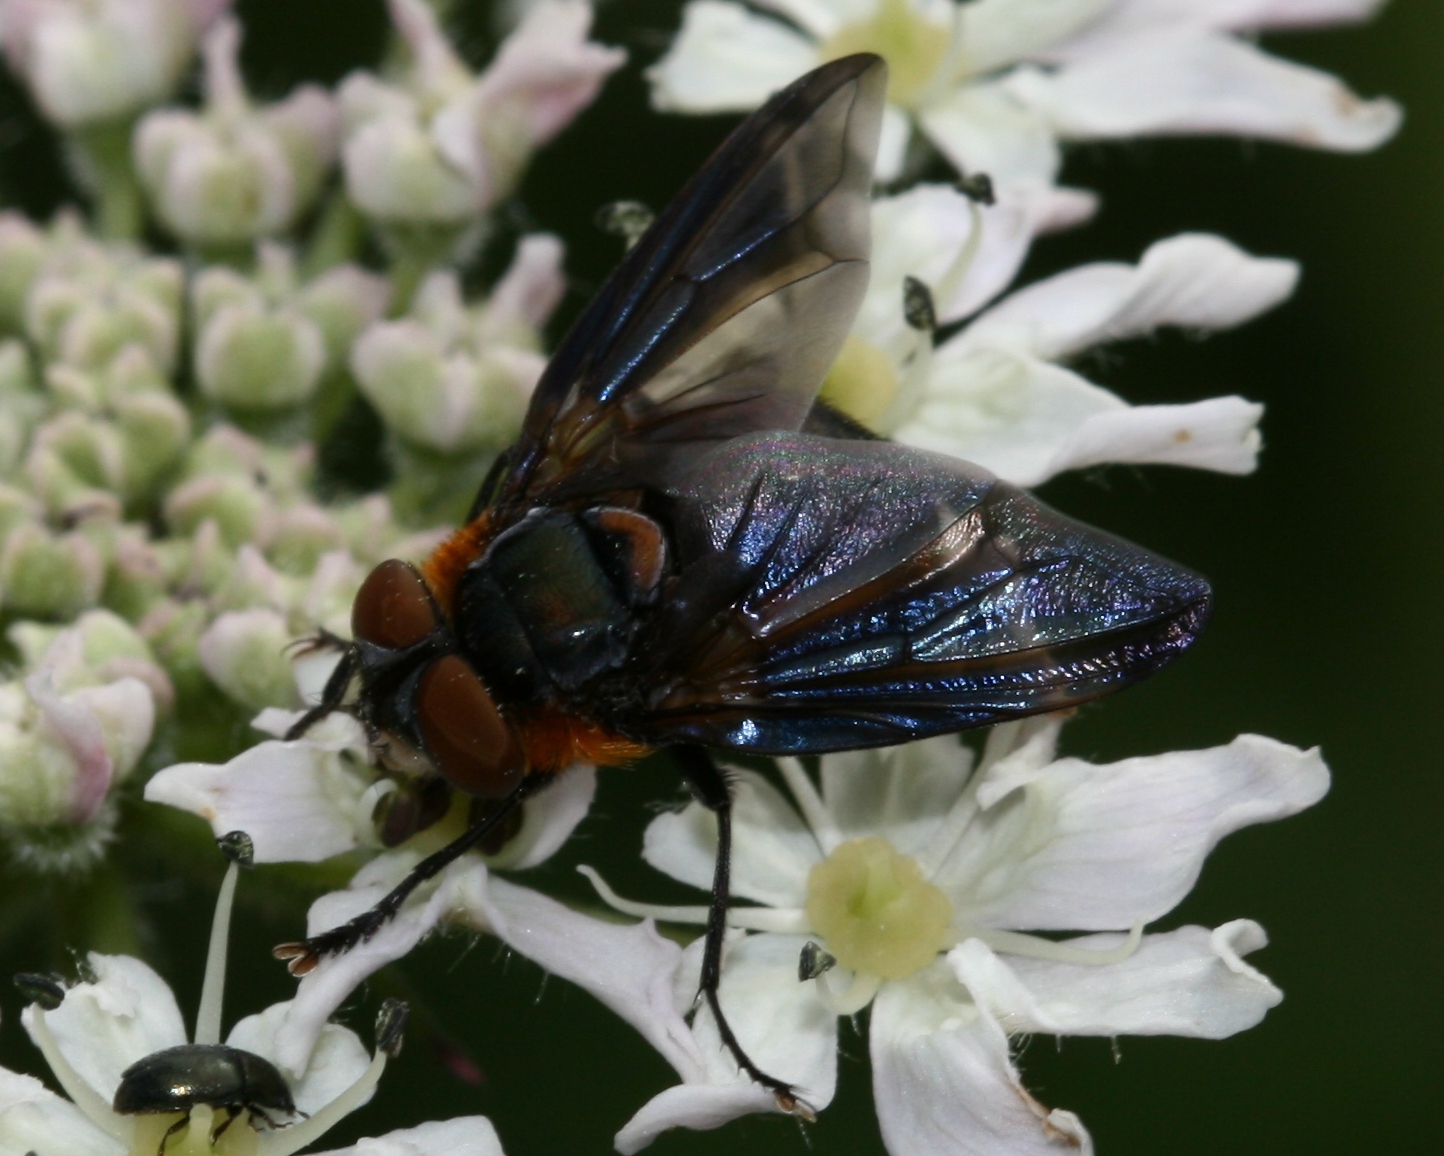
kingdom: Animalia
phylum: Arthropoda
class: Insecta
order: Diptera
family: Tachinidae
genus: Phasia
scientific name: Phasia hemiptera
